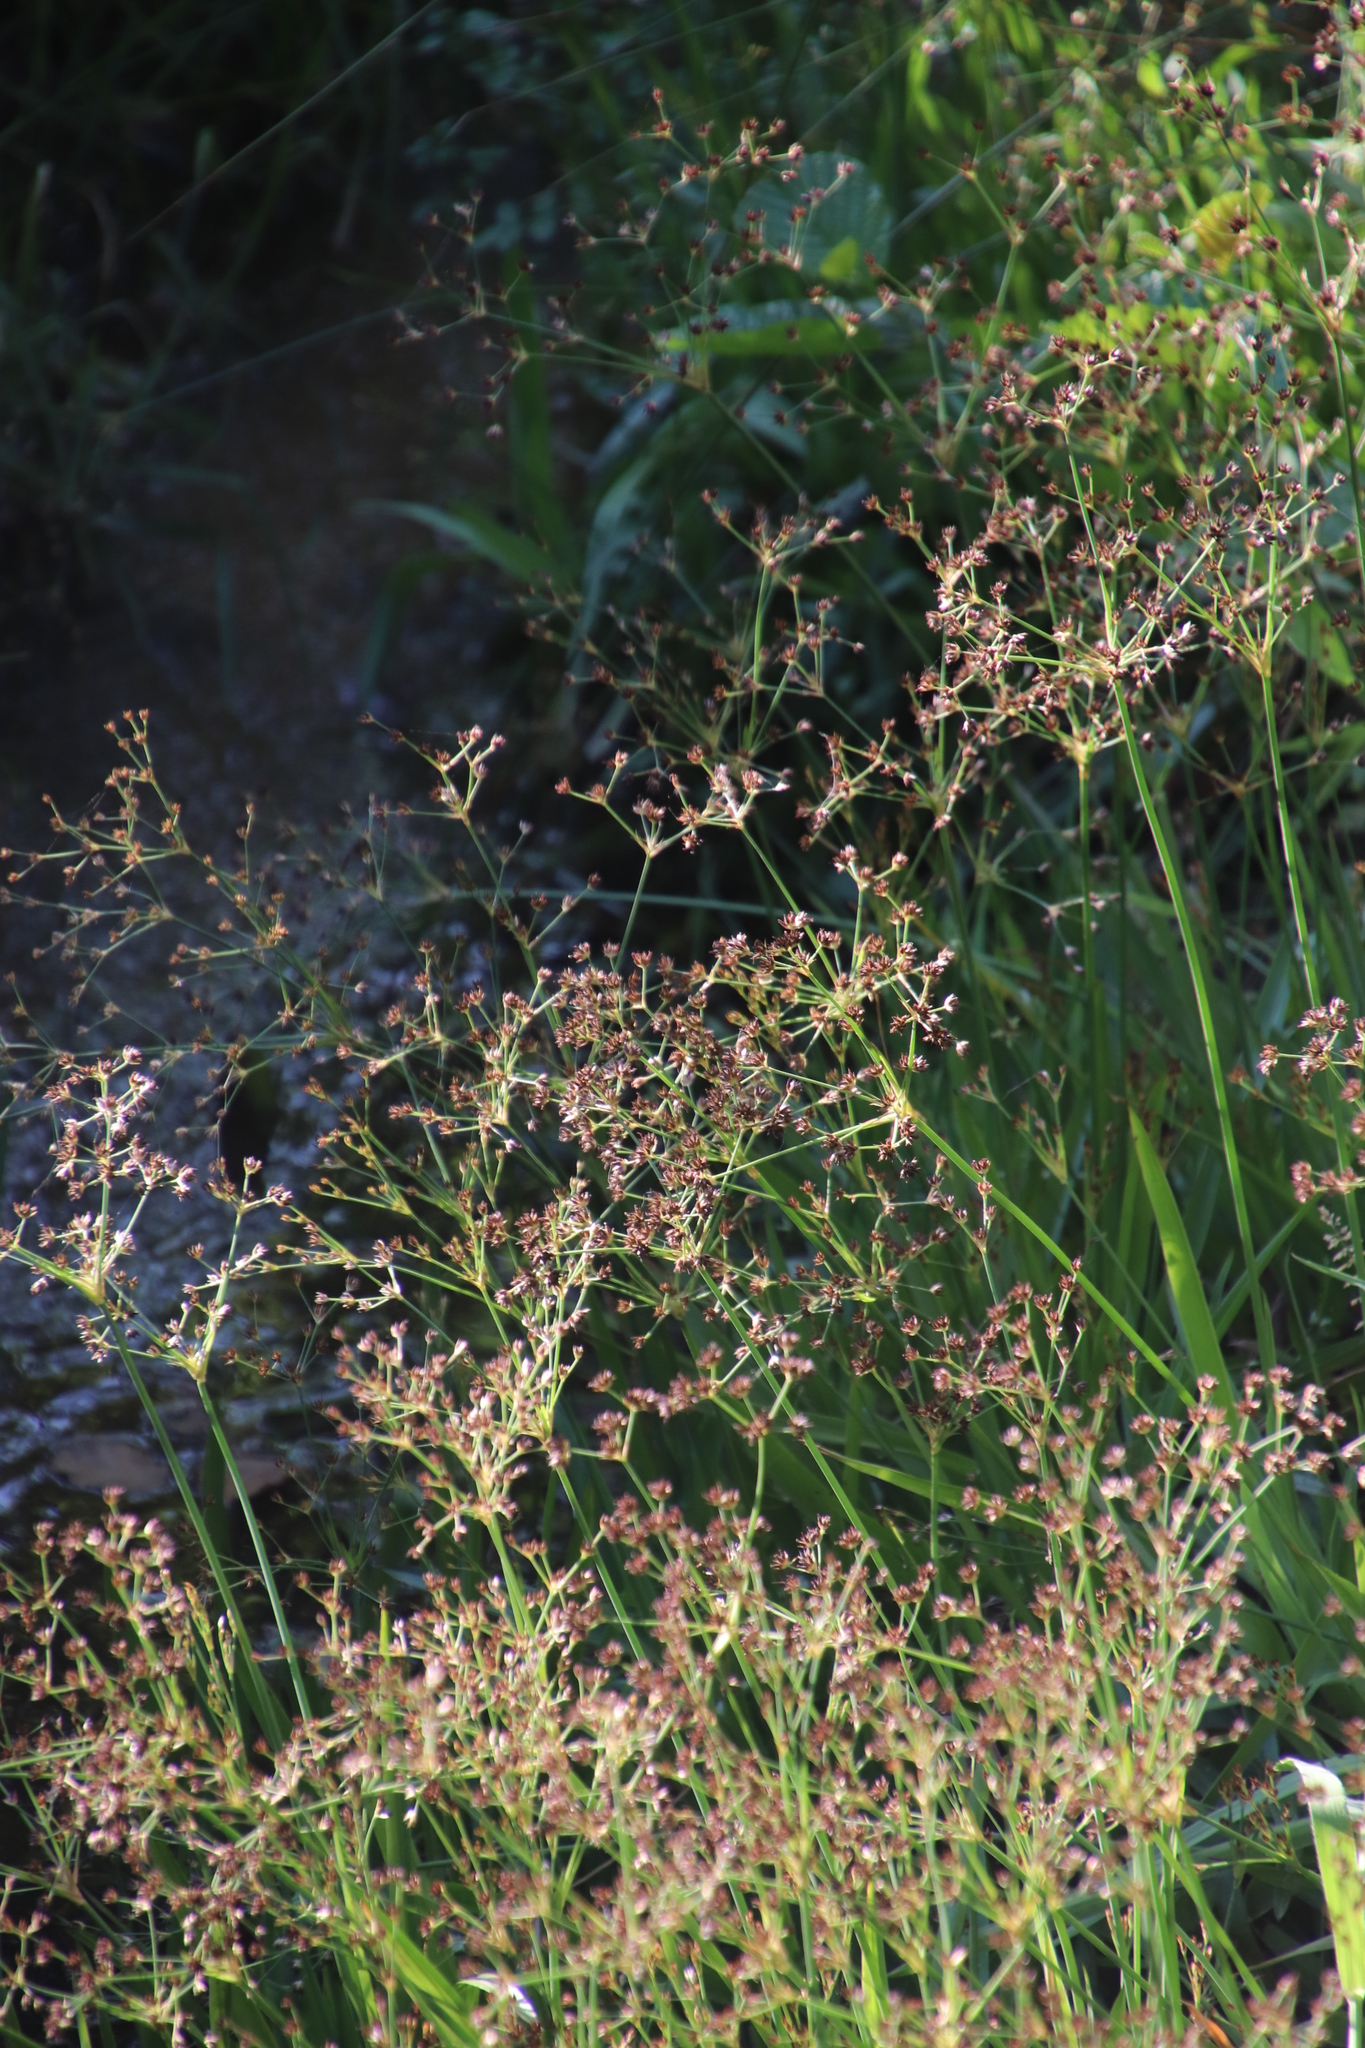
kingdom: Plantae
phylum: Tracheophyta
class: Liliopsida
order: Poales
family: Juncaceae
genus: Juncus
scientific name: Juncus lomatophyllus
